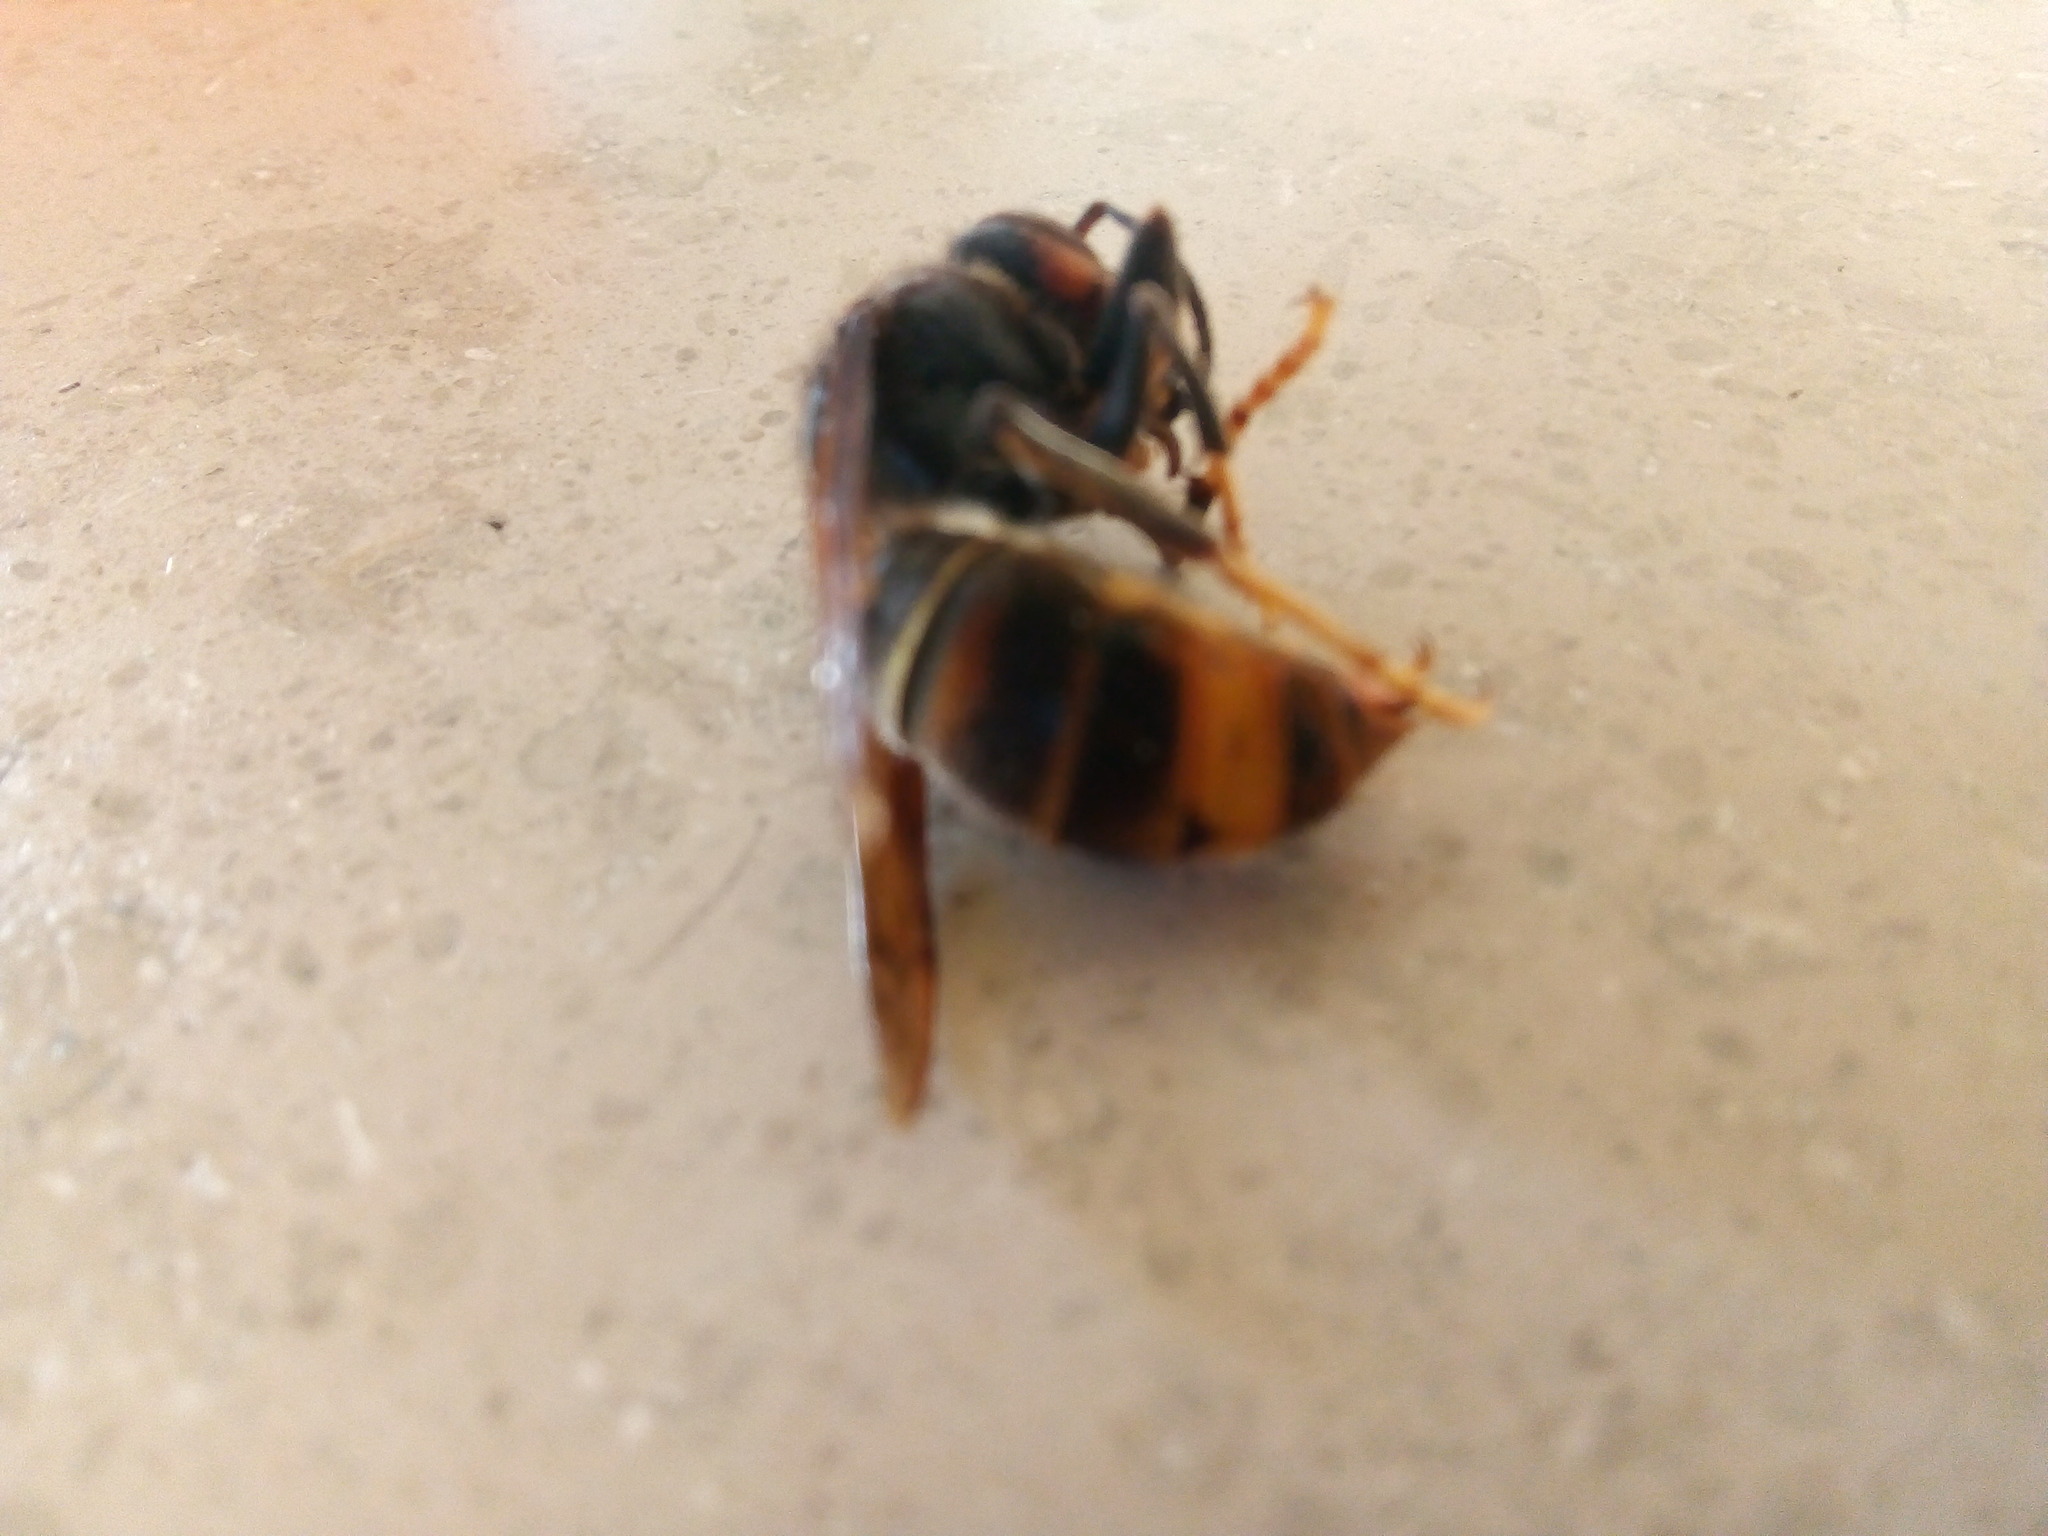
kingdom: Animalia
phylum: Arthropoda
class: Insecta
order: Hymenoptera
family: Vespidae
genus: Vespa
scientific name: Vespa velutina
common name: Asian hornet
